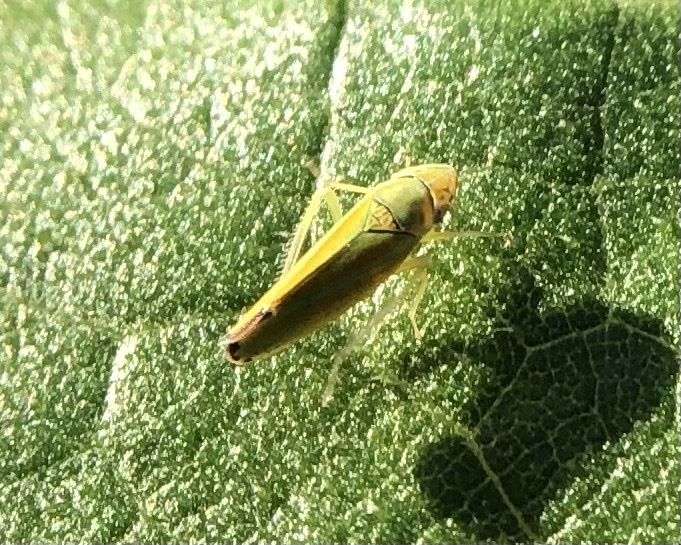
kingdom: Animalia
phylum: Arthropoda
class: Insecta
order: Hemiptera
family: Cicadellidae
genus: Graphocephala
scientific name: Graphocephala versuta
